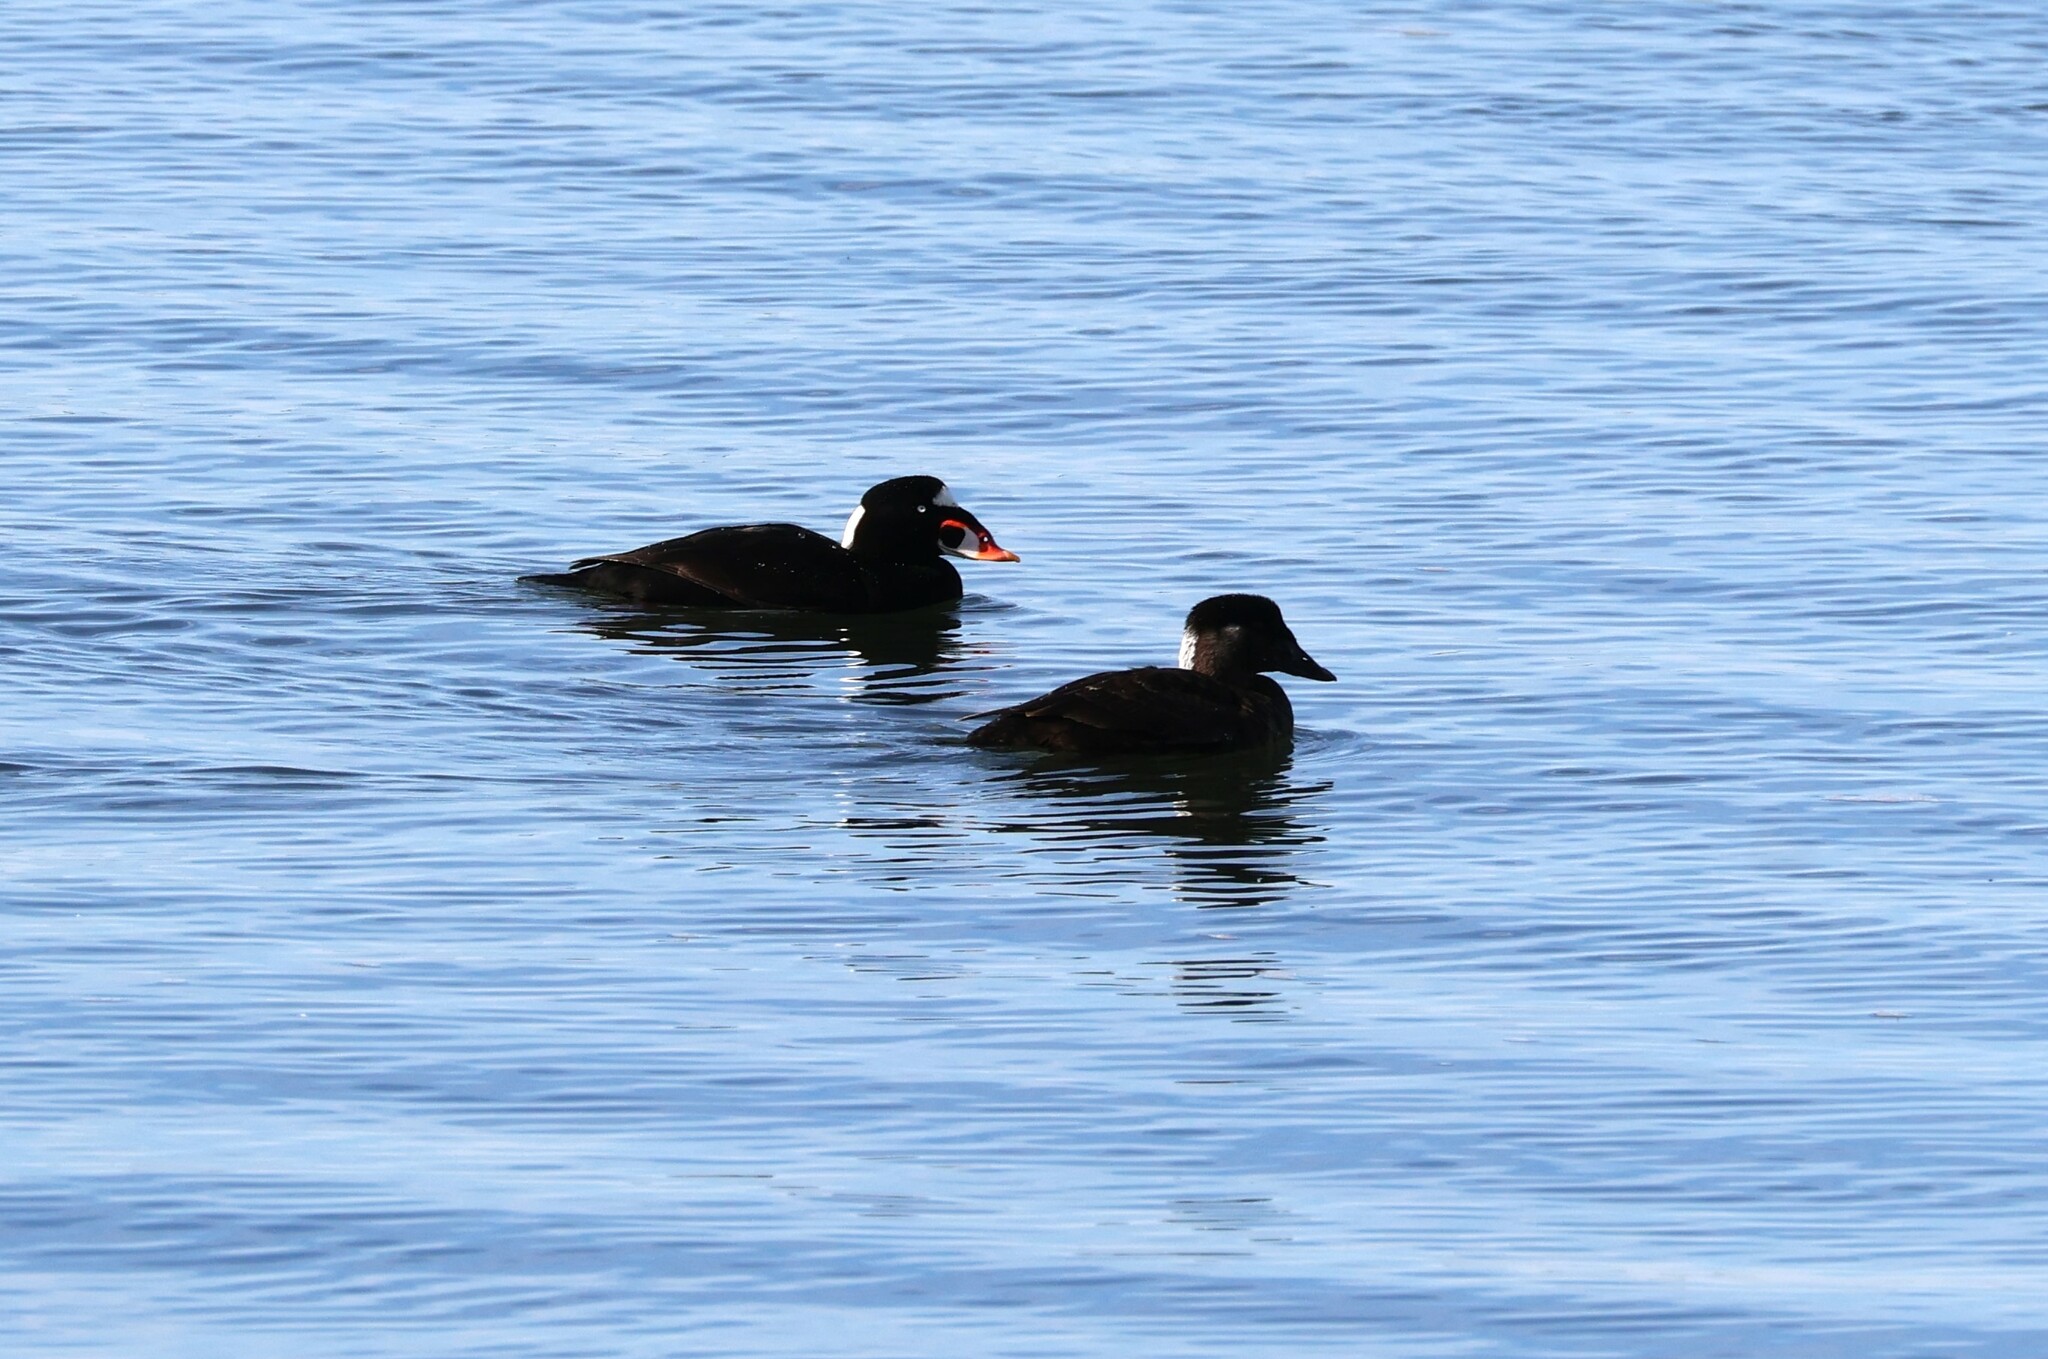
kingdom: Animalia
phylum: Chordata
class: Aves
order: Anseriformes
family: Anatidae
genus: Melanitta
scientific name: Melanitta perspicillata
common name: Surf scoter
